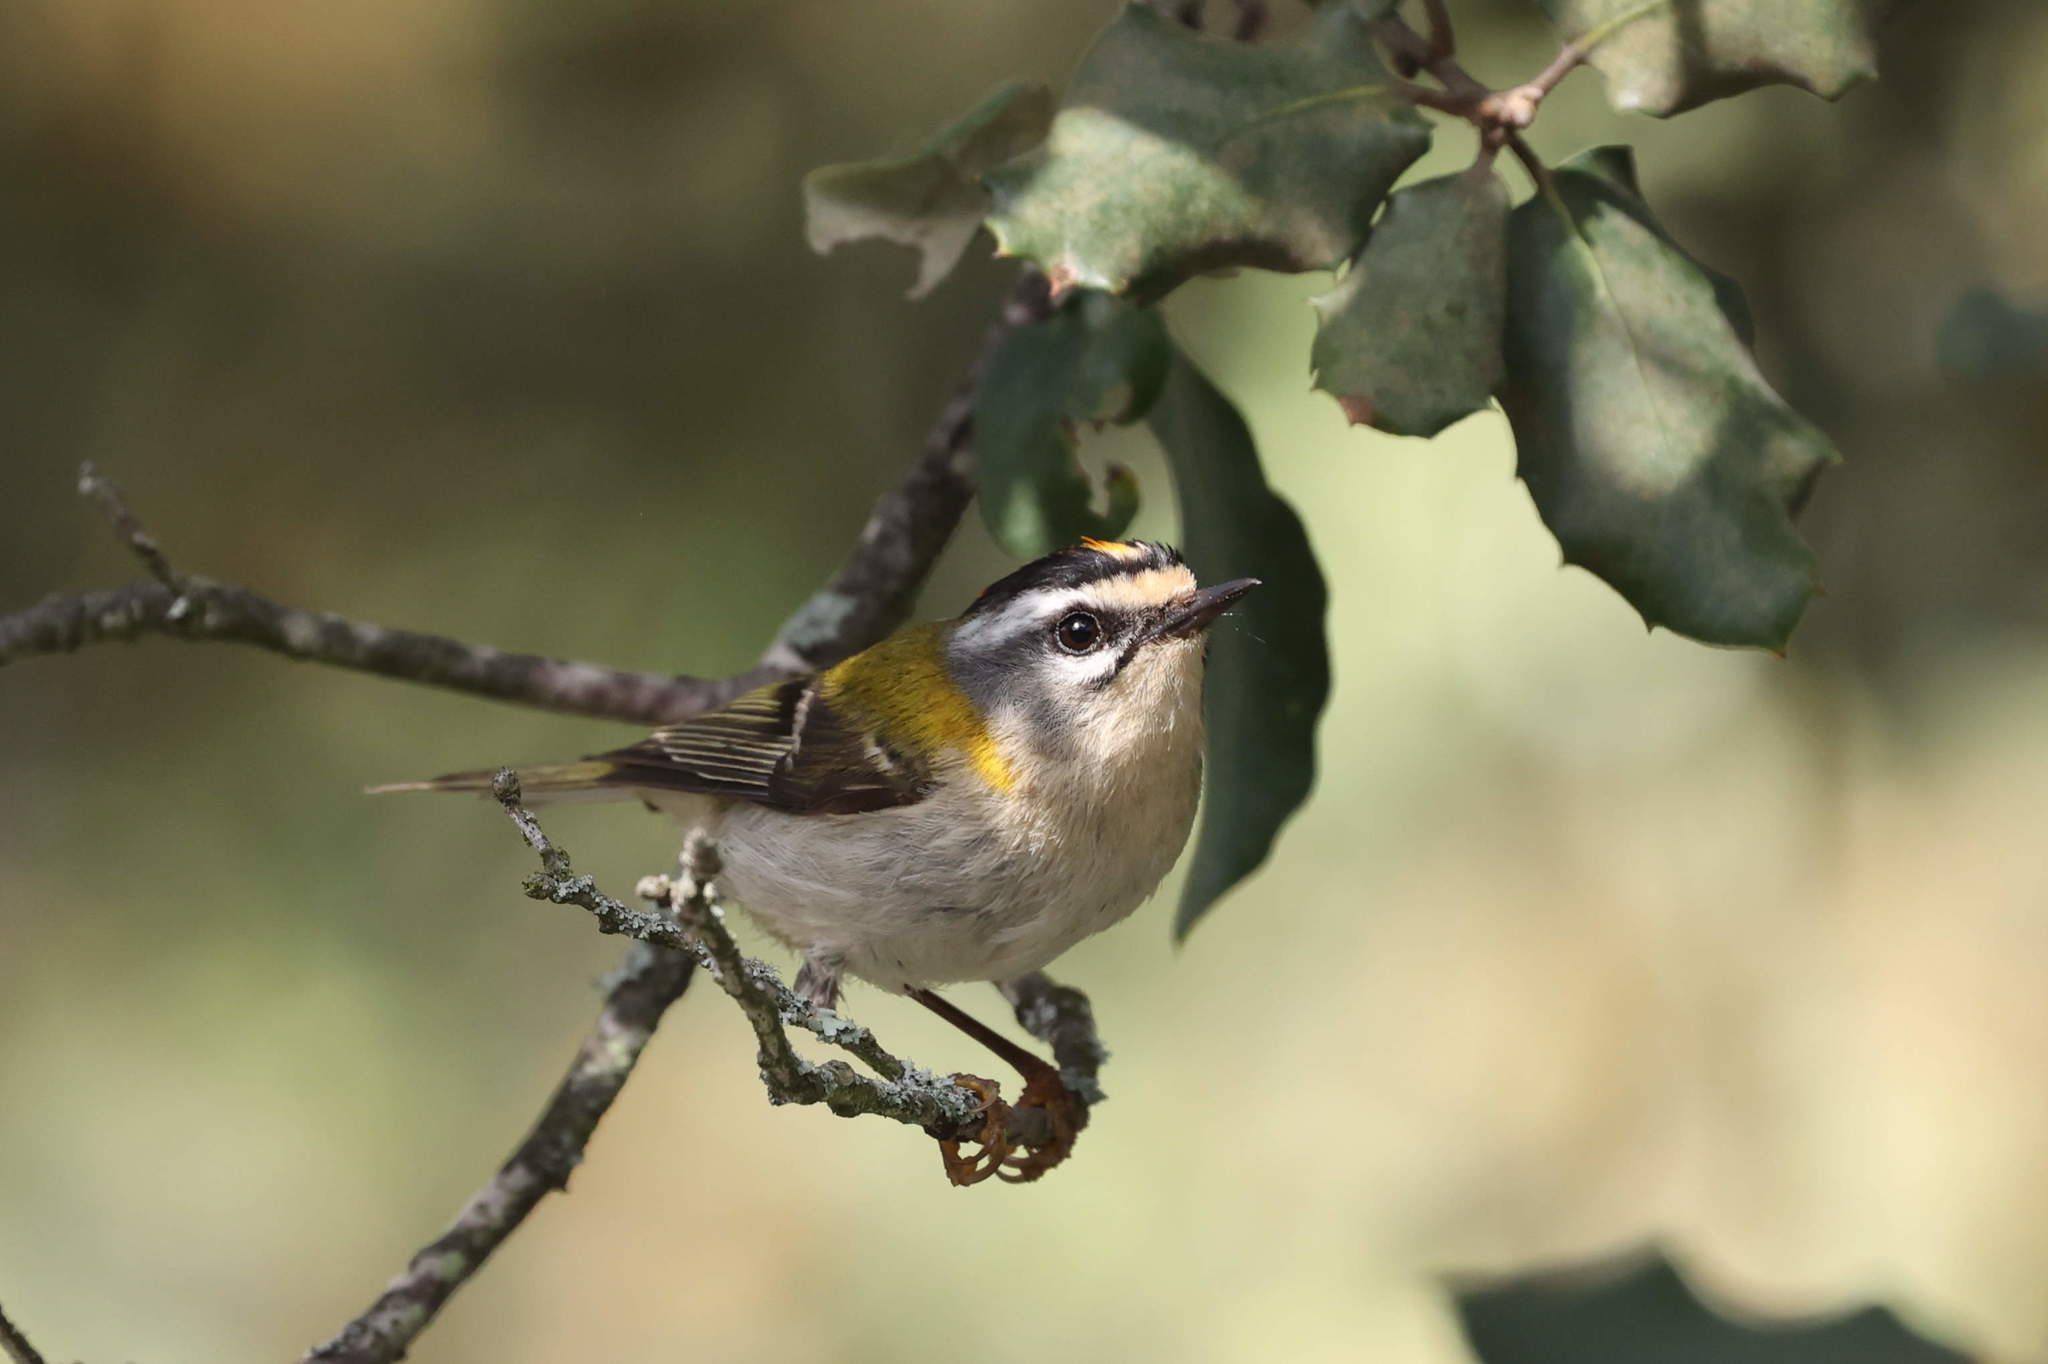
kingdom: Animalia
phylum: Chordata
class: Aves
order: Passeriformes
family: Regulidae
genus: Regulus
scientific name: Regulus ignicapilla
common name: Firecrest
